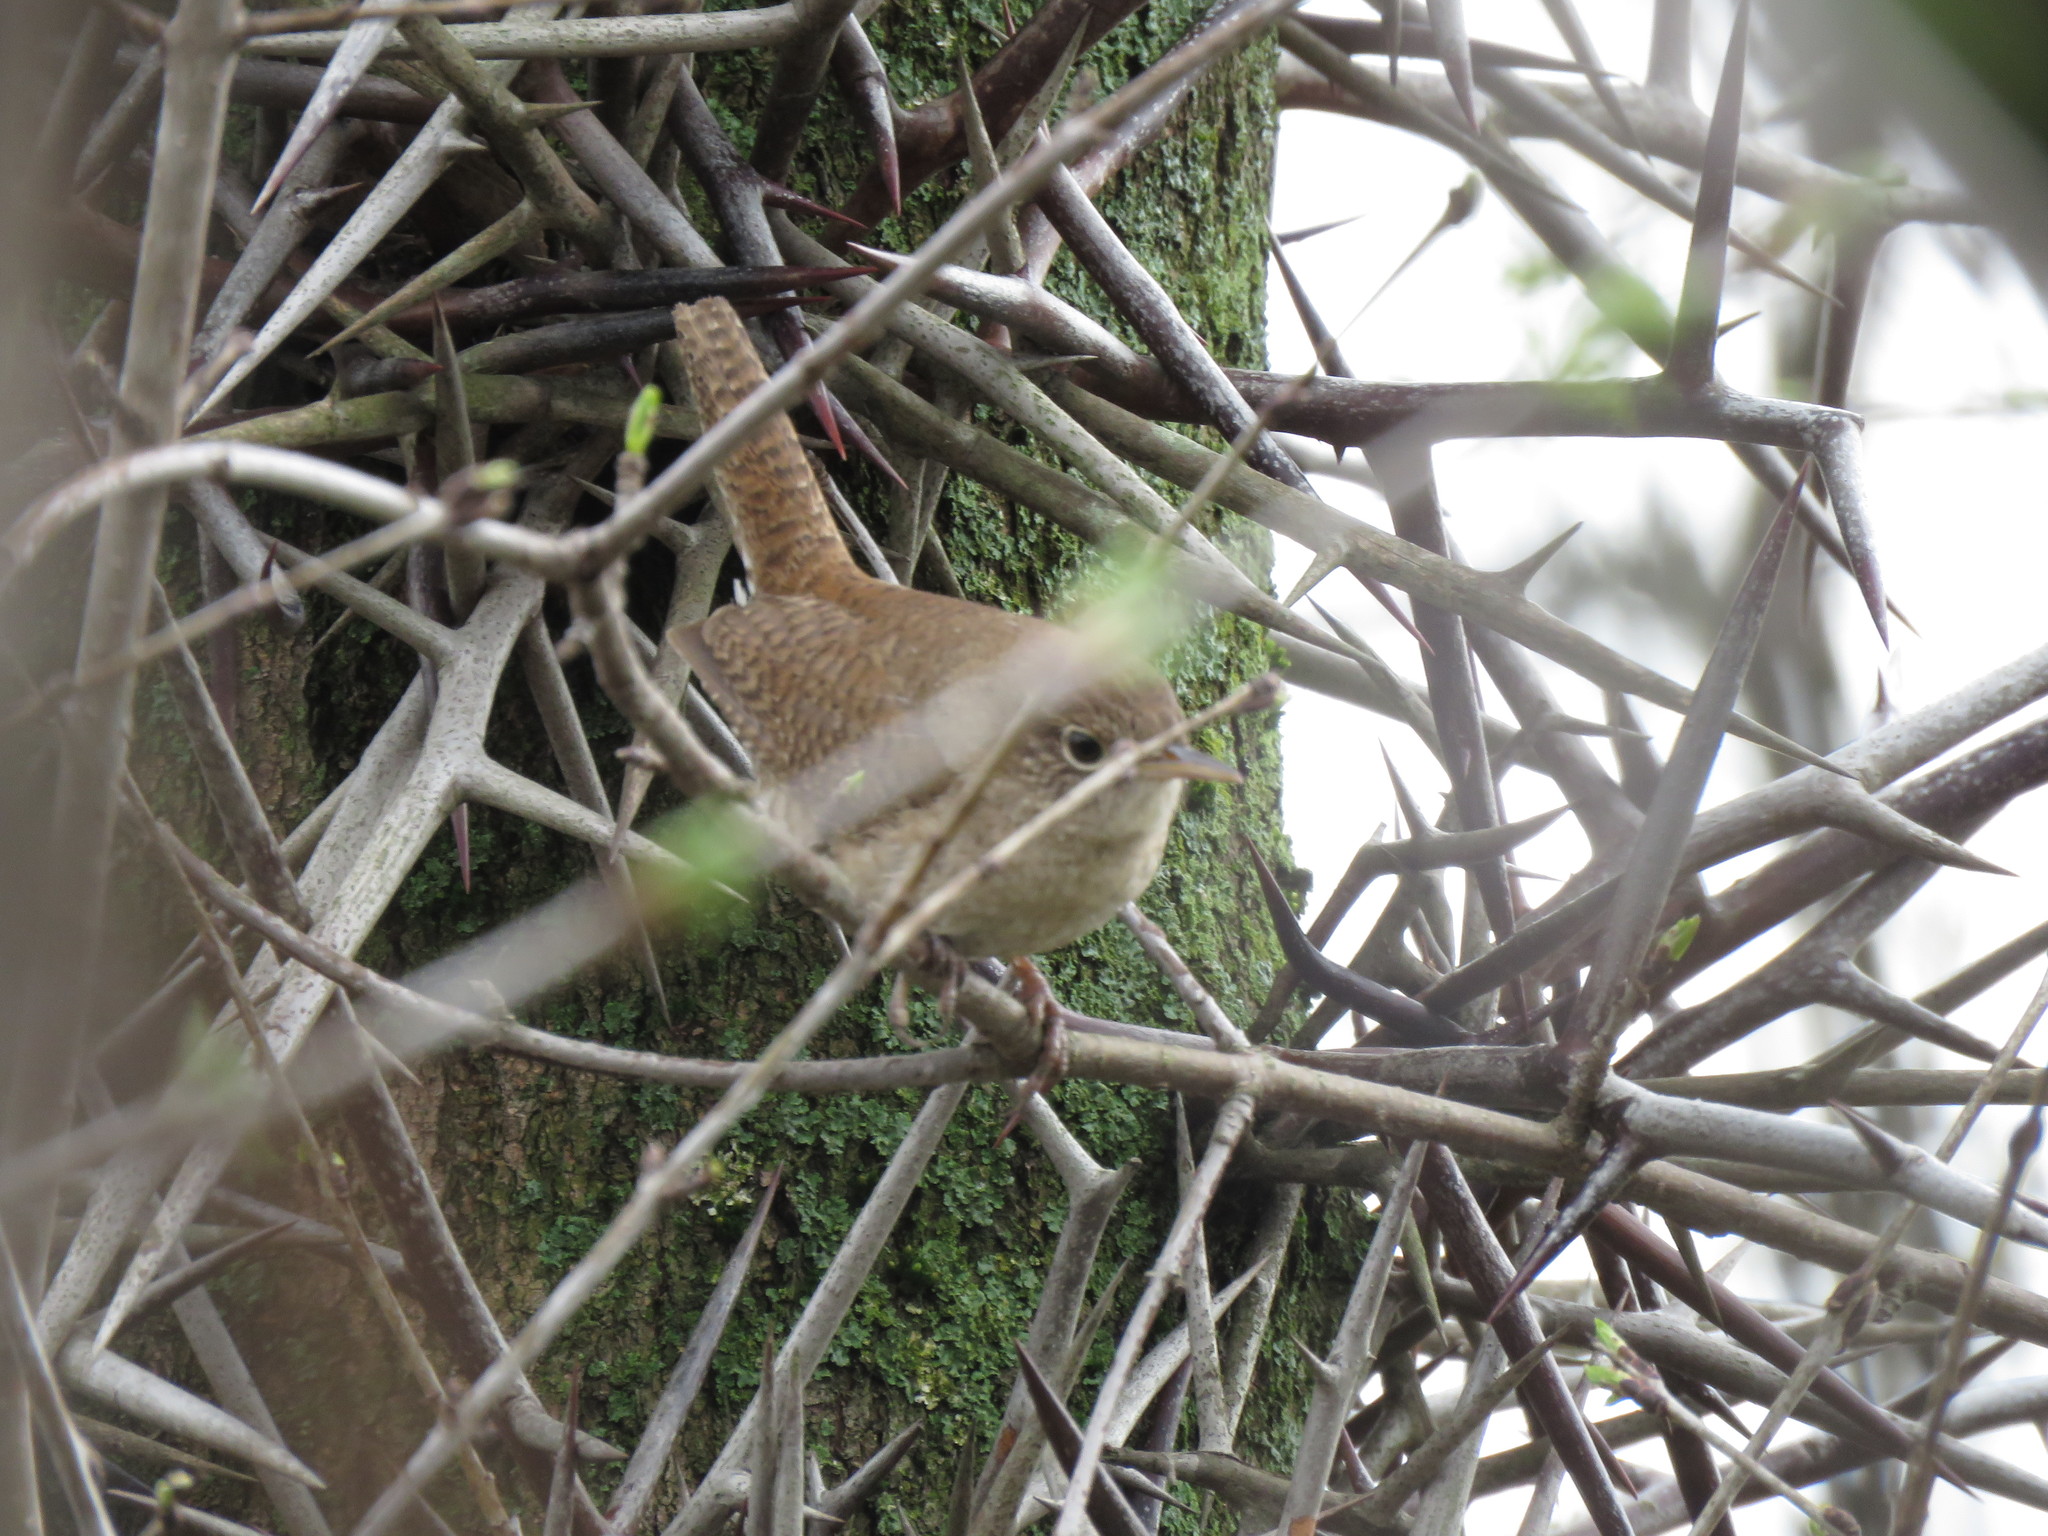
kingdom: Animalia
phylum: Chordata
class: Aves
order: Passeriformes
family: Troglodytidae
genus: Troglodytes
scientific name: Troglodytes aedon
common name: House wren
